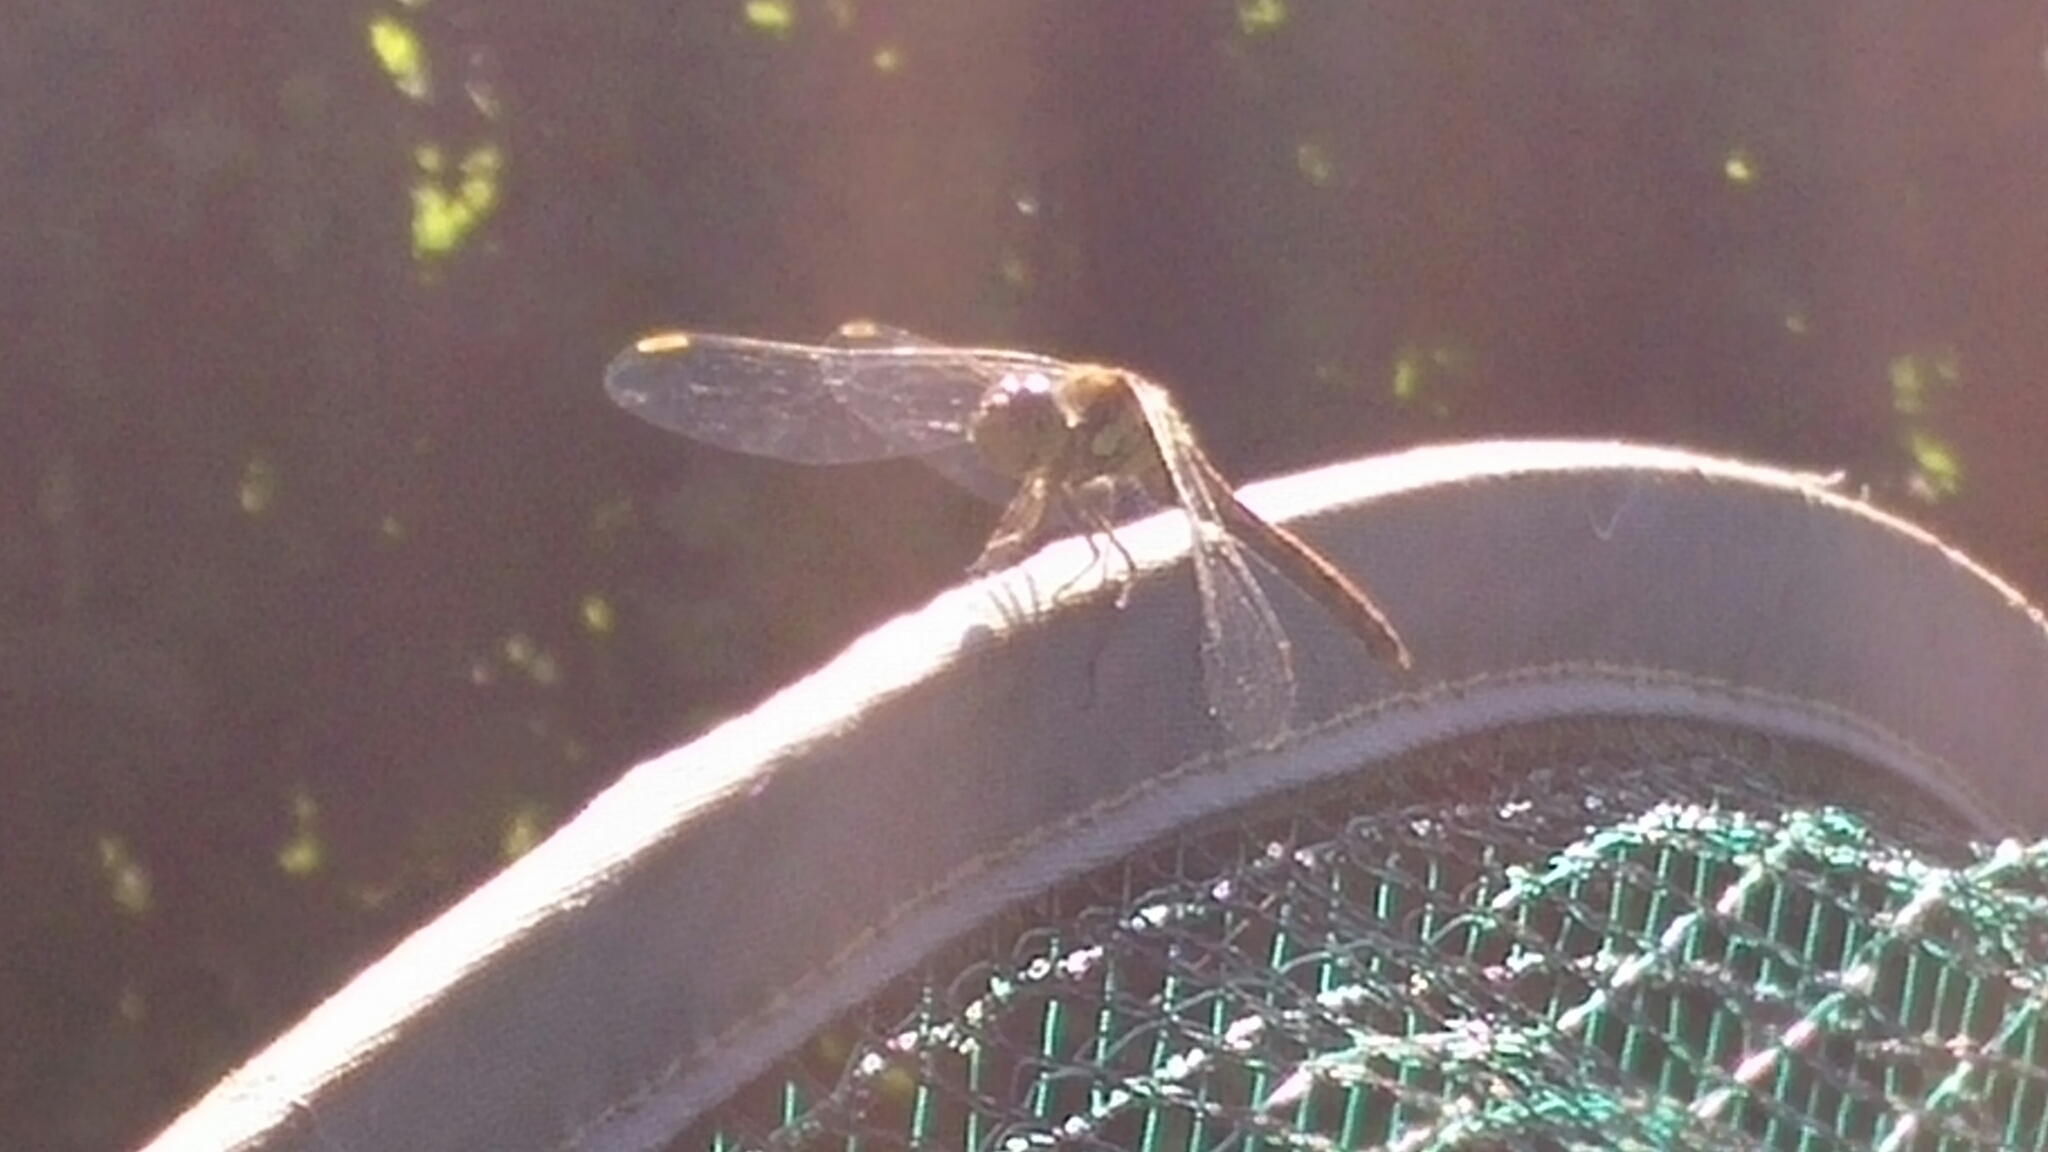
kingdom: Animalia
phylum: Arthropoda
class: Insecta
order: Odonata
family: Libellulidae
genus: Sympetrum
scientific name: Sympetrum striolatum
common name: Common darter
